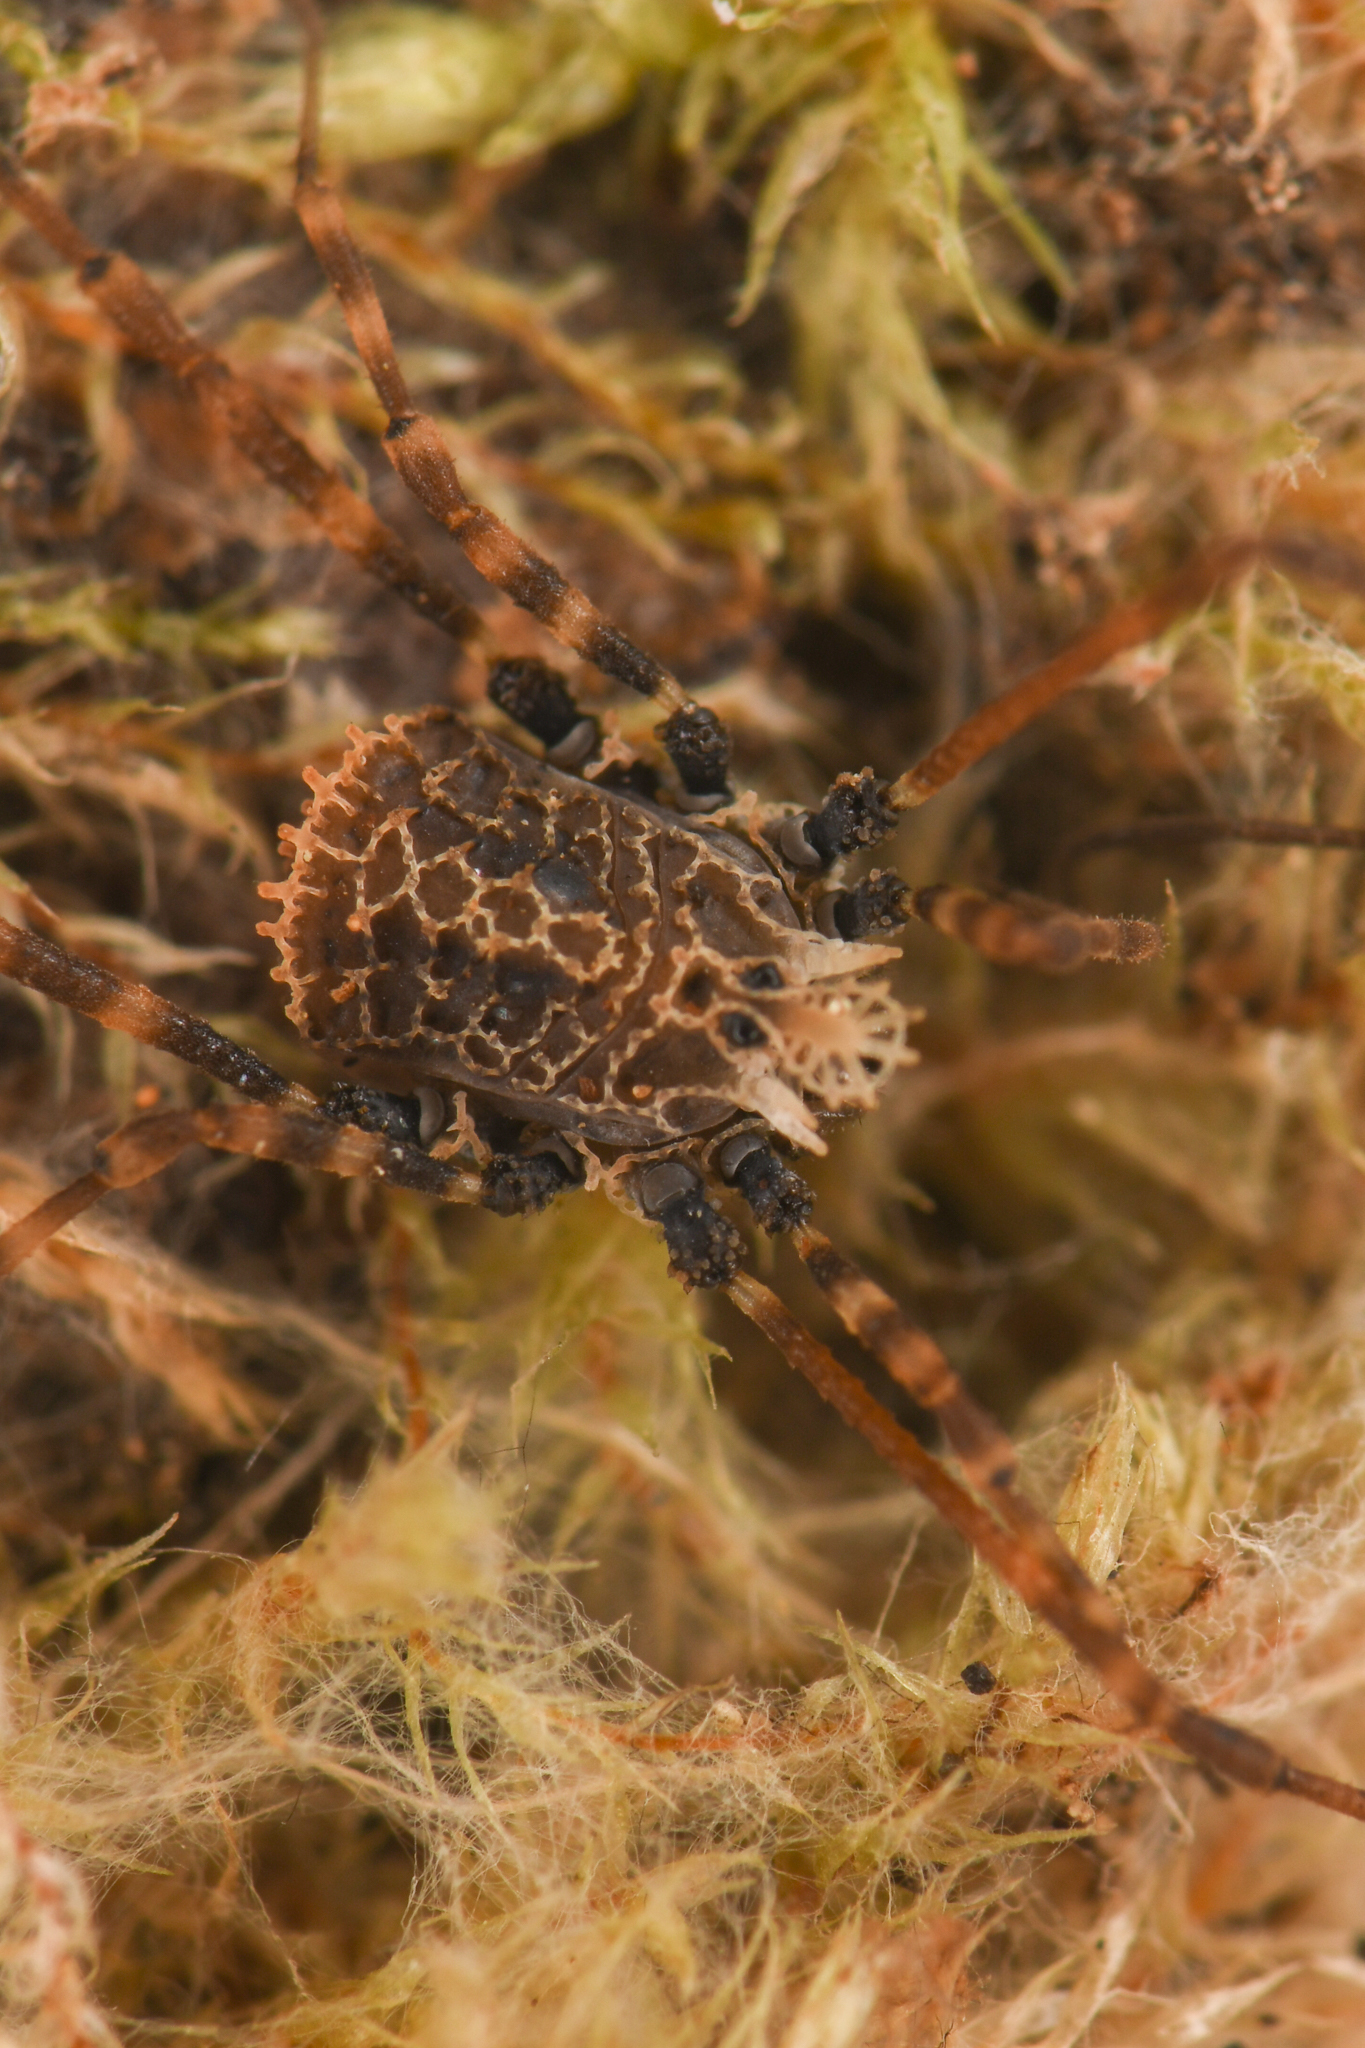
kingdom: Animalia
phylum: Arthropoda
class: Arachnida
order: Opiliones
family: Nemastomatidae
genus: Ortholasma
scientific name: Ortholasma pictipes
